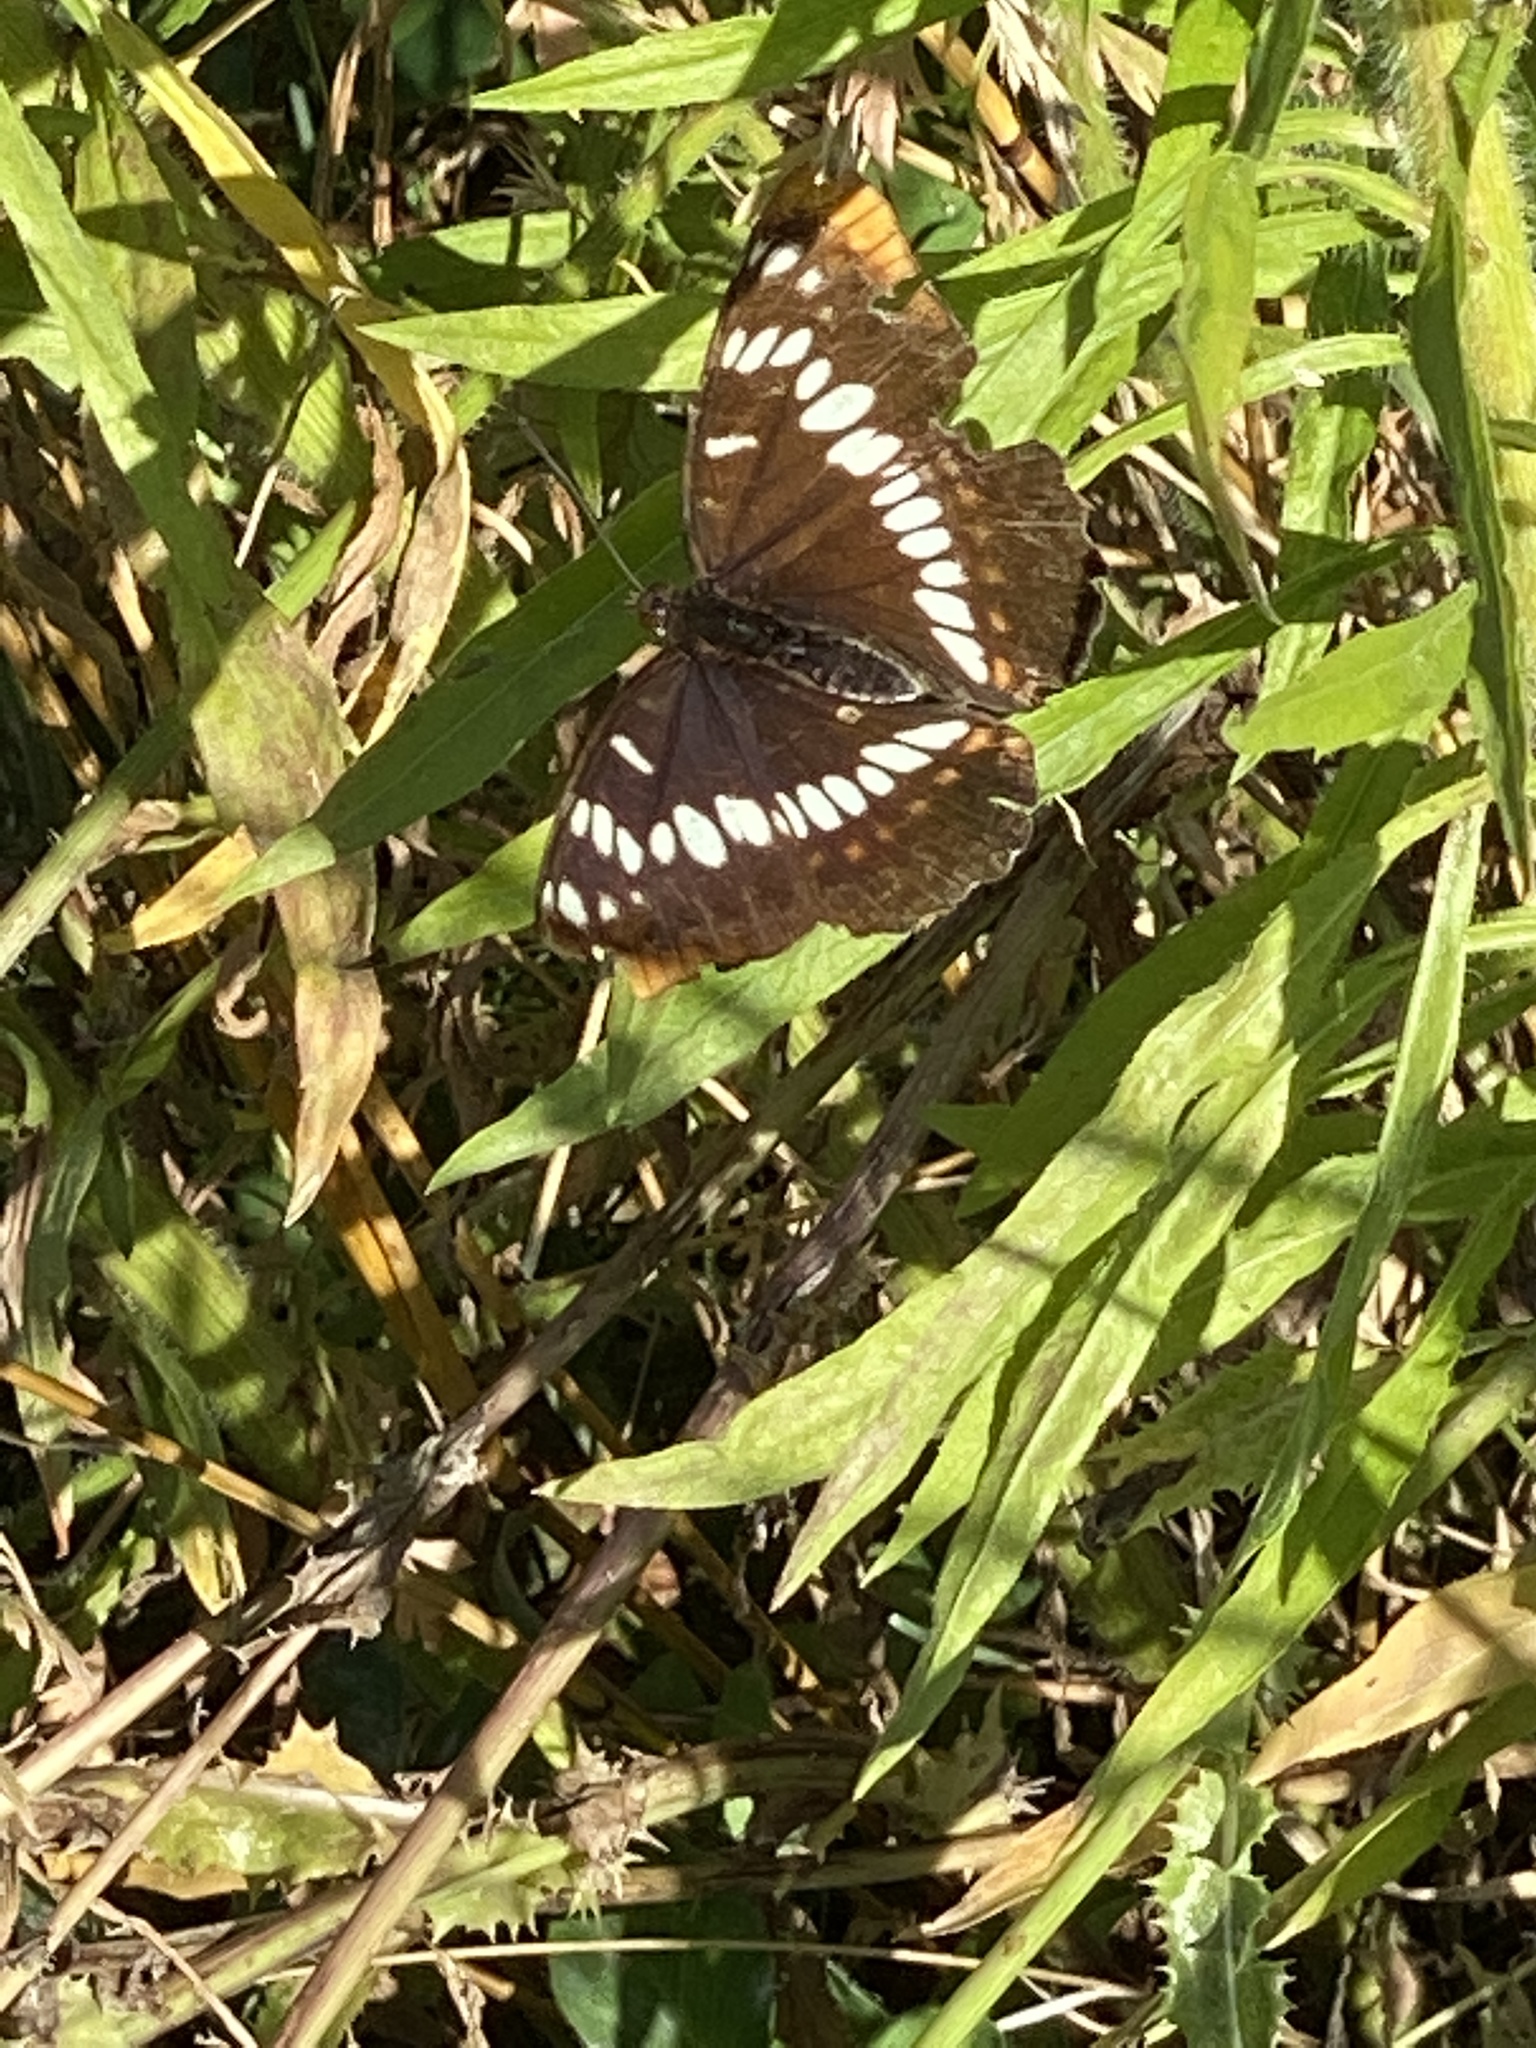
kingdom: Animalia
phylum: Arthropoda
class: Insecta
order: Lepidoptera
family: Nymphalidae
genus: Limenitis
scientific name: Limenitis lorquini
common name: Lorquin's admiral
